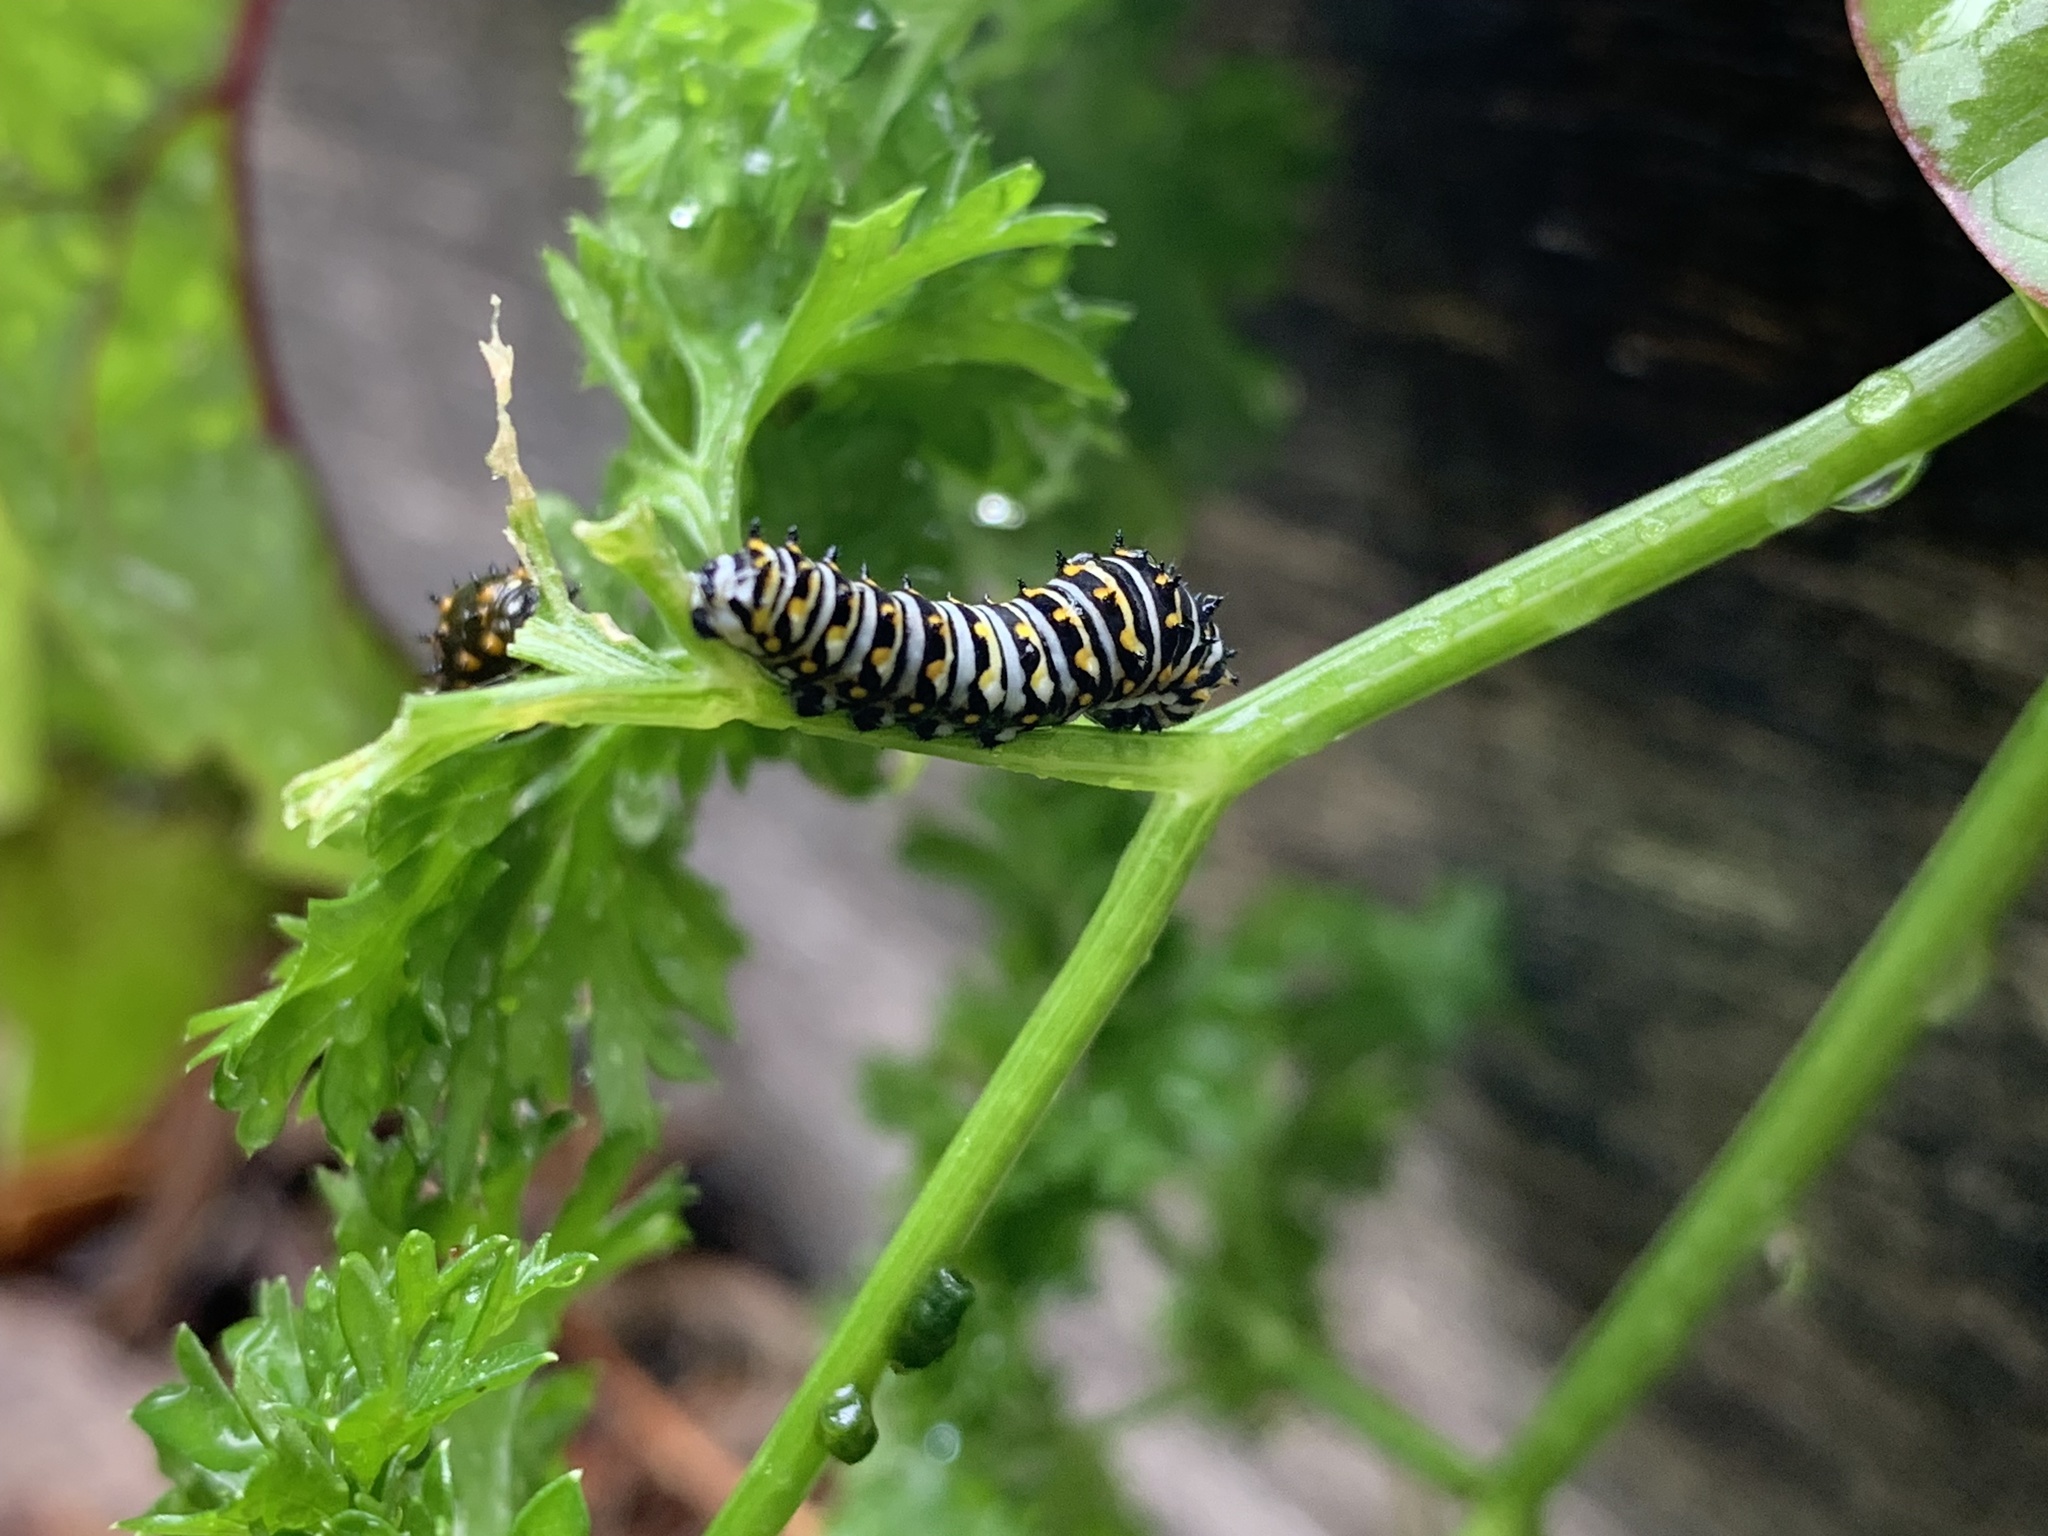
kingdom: Animalia
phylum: Arthropoda
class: Insecta
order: Lepidoptera
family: Papilionidae
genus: Papilio
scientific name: Papilio polyxenes
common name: Black swallowtail
